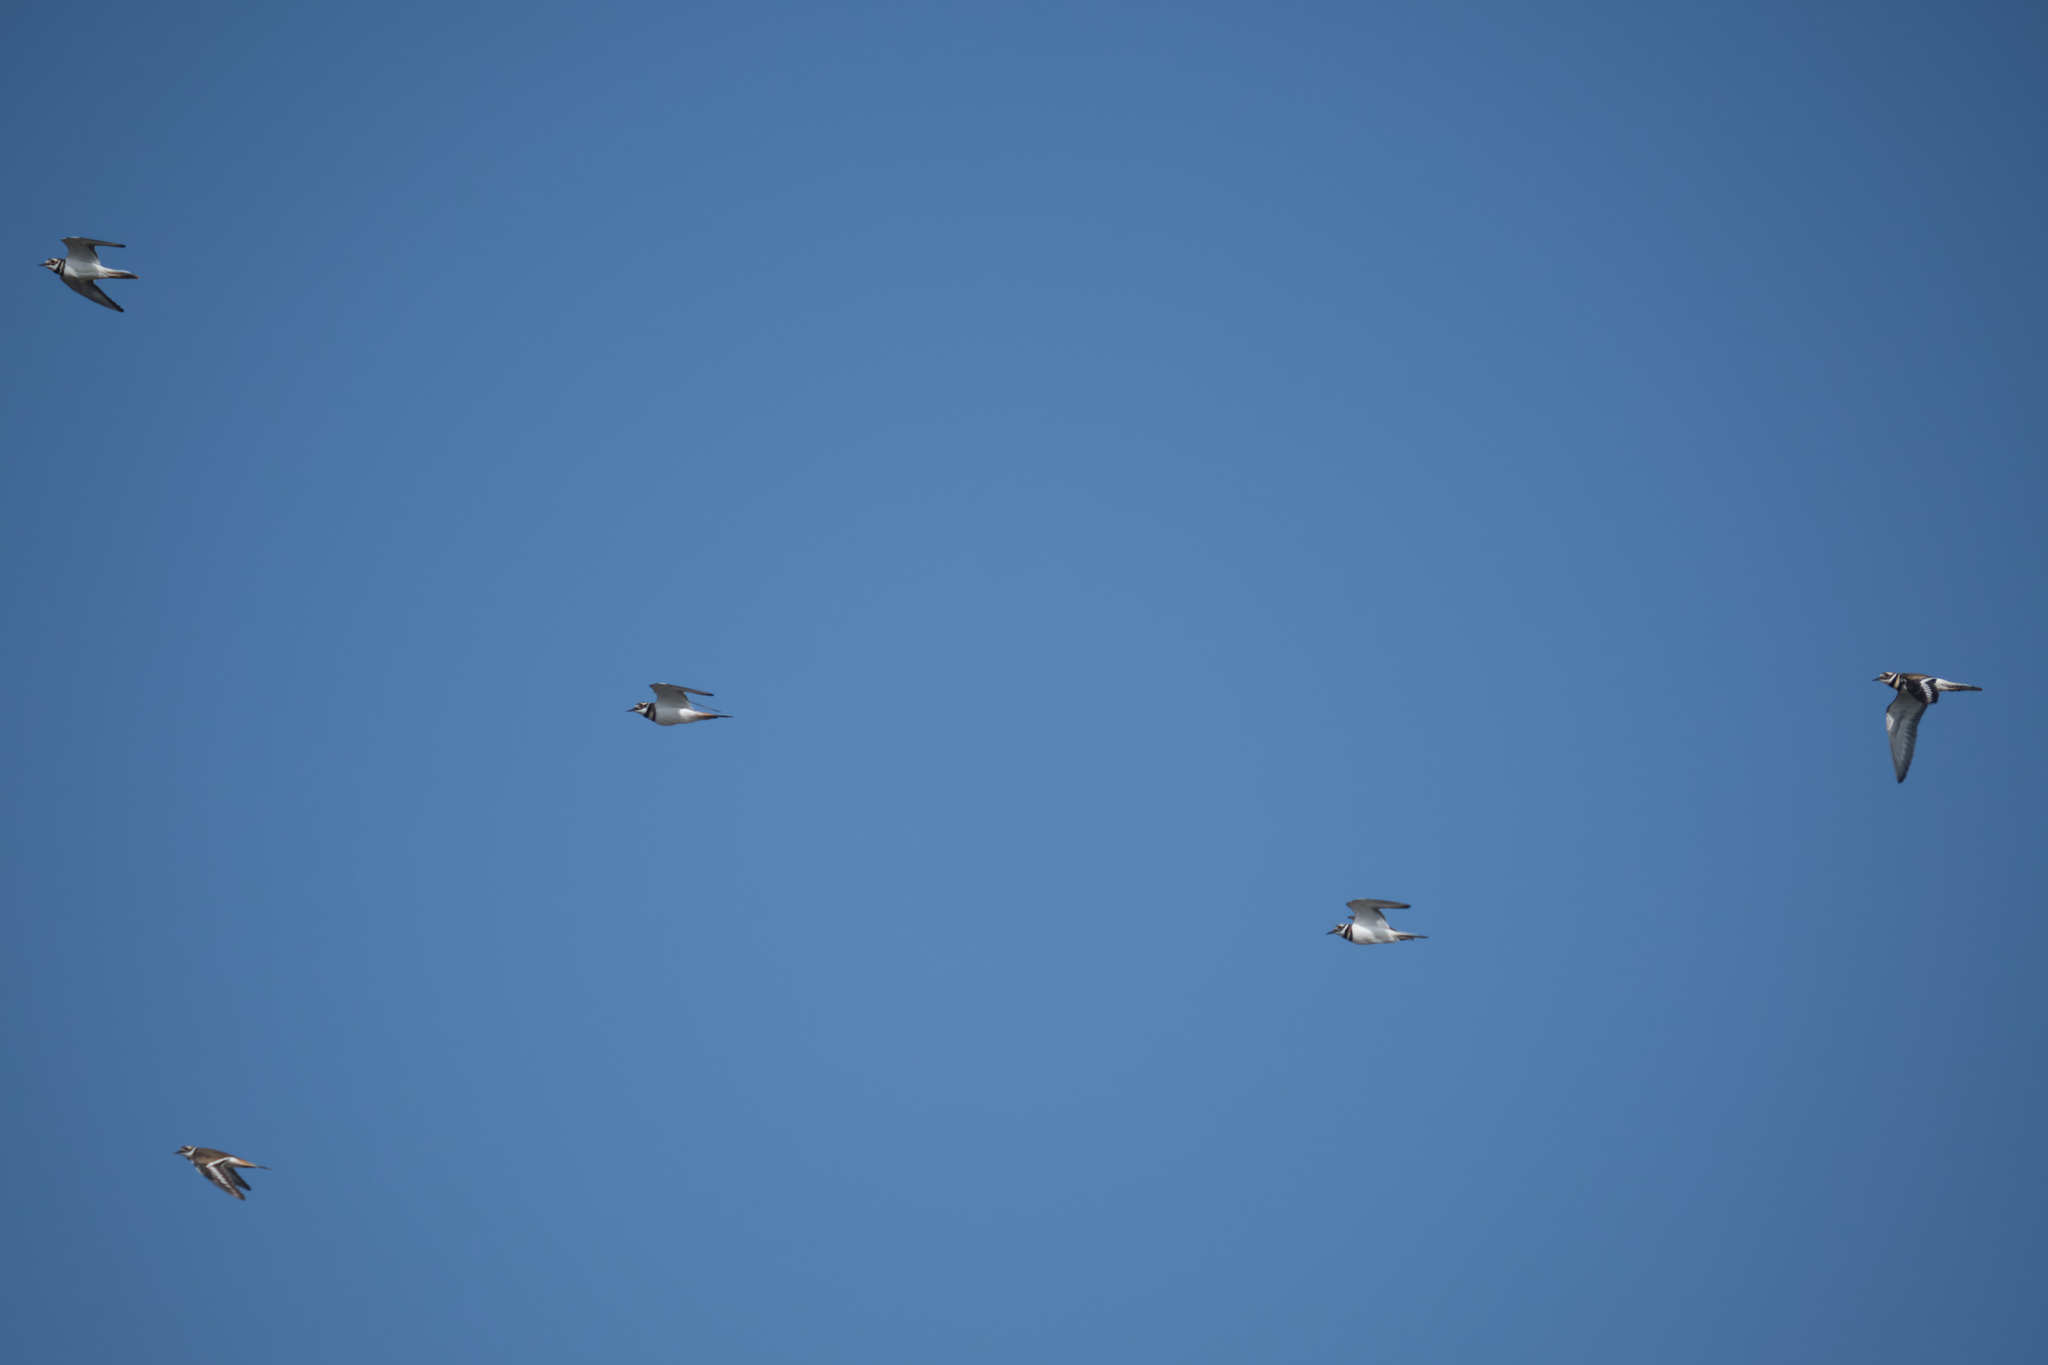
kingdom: Animalia
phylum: Chordata
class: Aves
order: Charadriiformes
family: Charadriidae
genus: Charadrius
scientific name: Charadrius vociferus
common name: Killdeer
